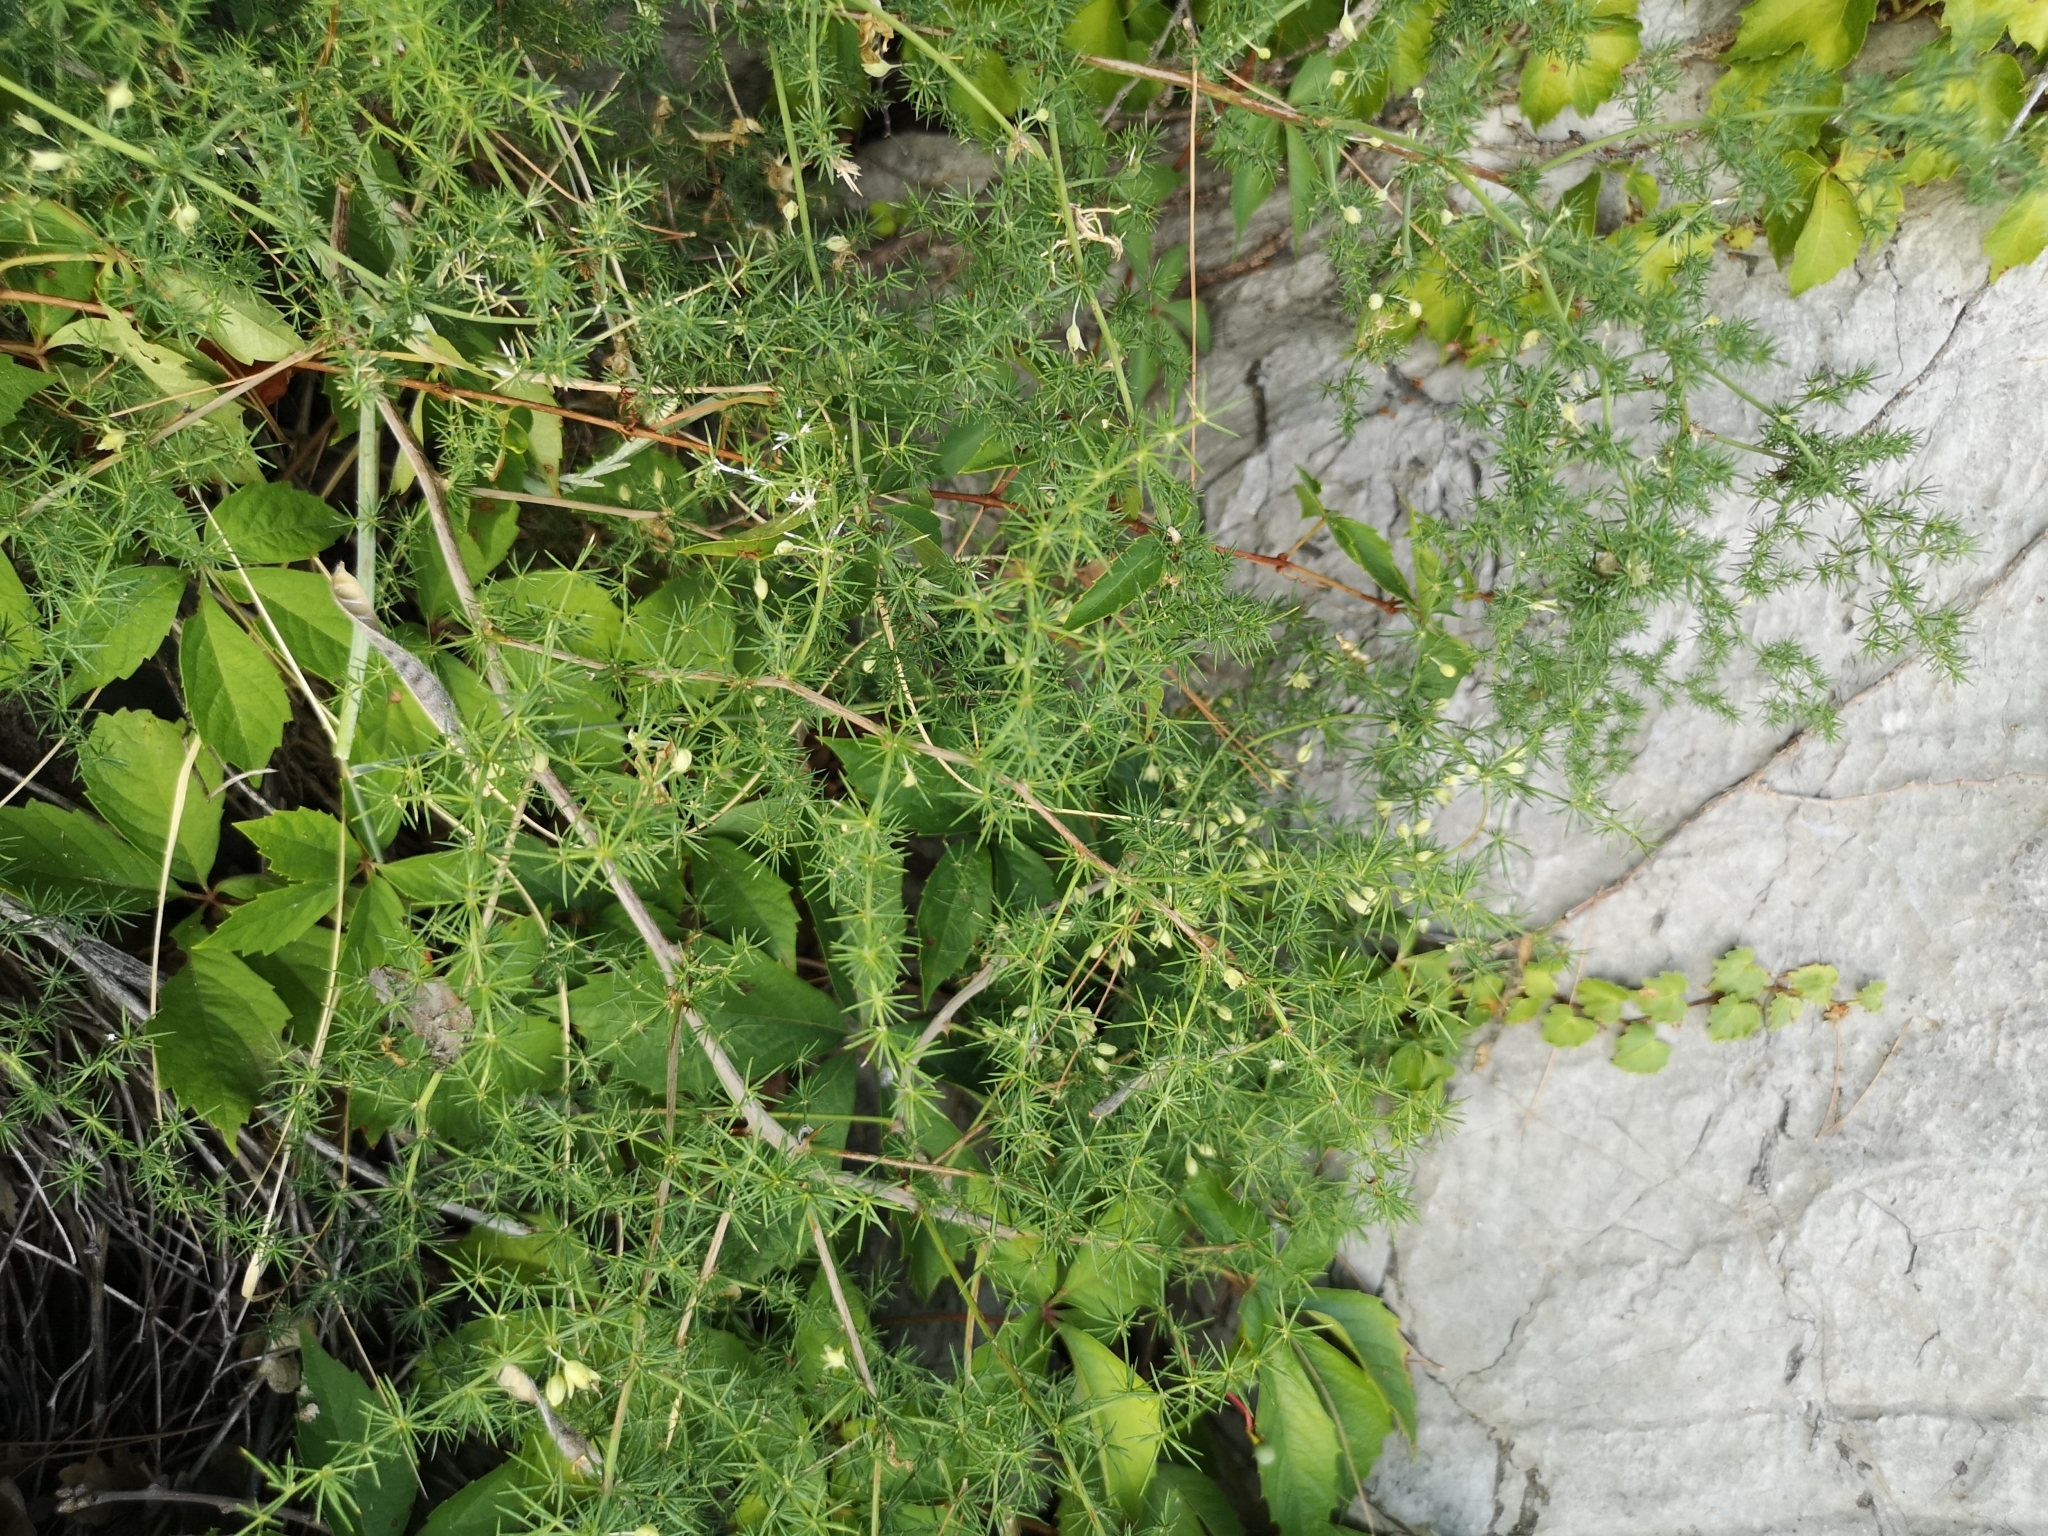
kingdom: Plantae
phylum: Tracheophyta
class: Liliopsida
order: Asparagales
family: Asparagaceae
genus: Asparagus
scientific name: Asparagus acutifolius
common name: Wild asparagus
